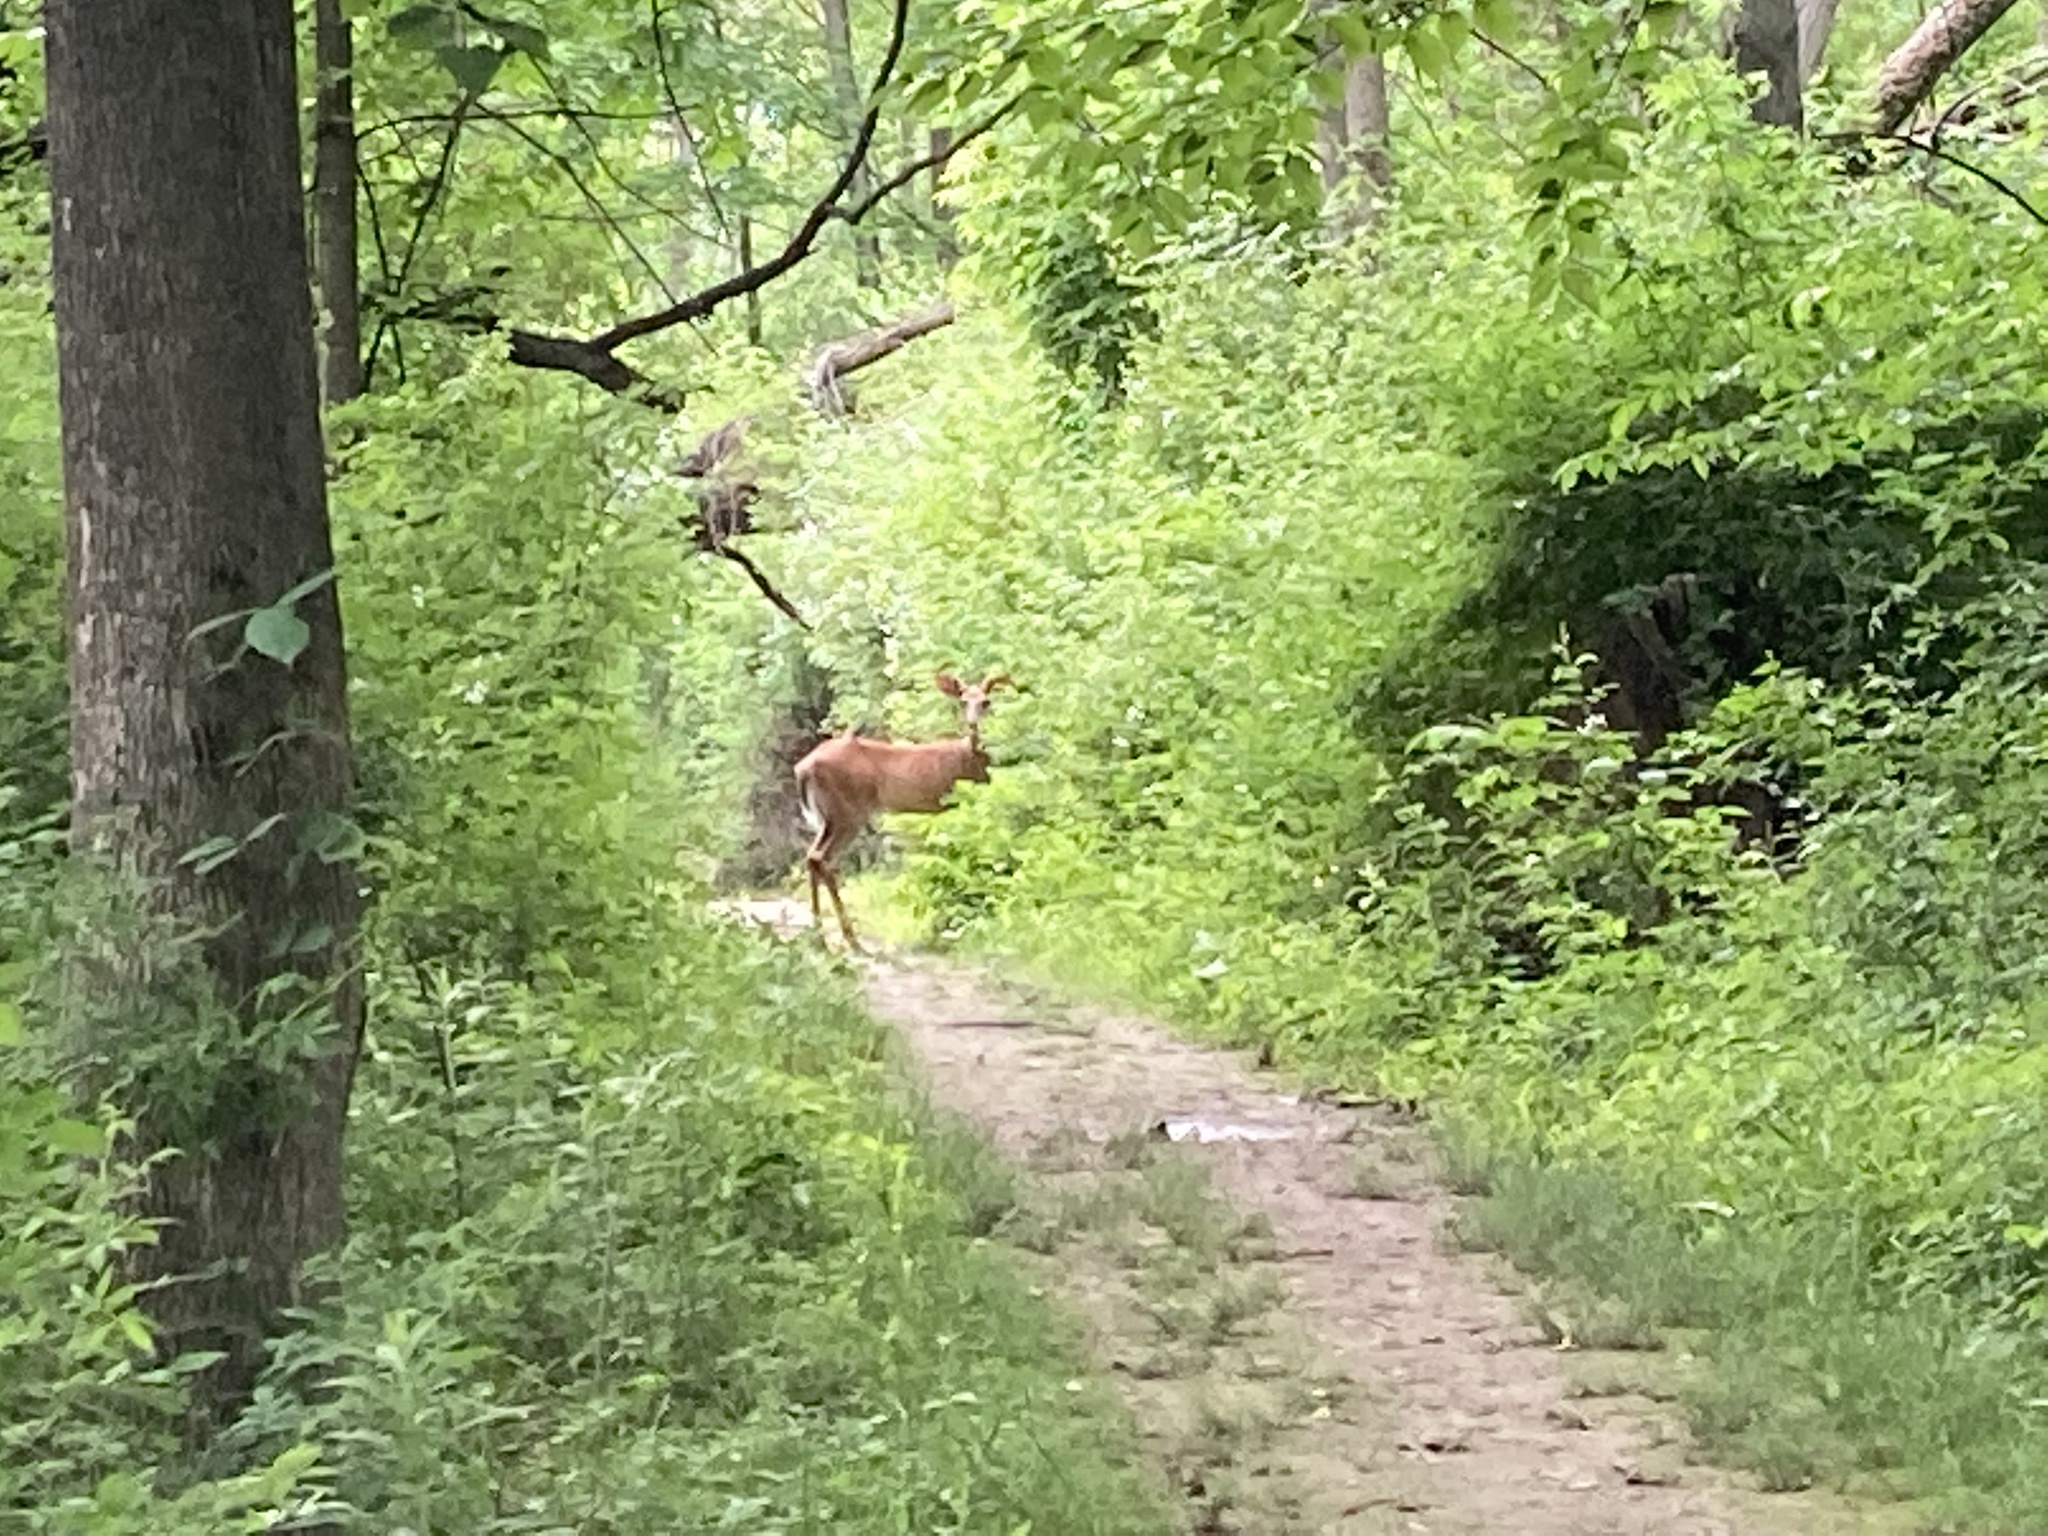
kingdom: Animalia
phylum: Chordata
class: Mammalia
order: Artiodactyla
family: Cervidae
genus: Odocoileus
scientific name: Odocoileus virginianus
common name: White-tailed deer
